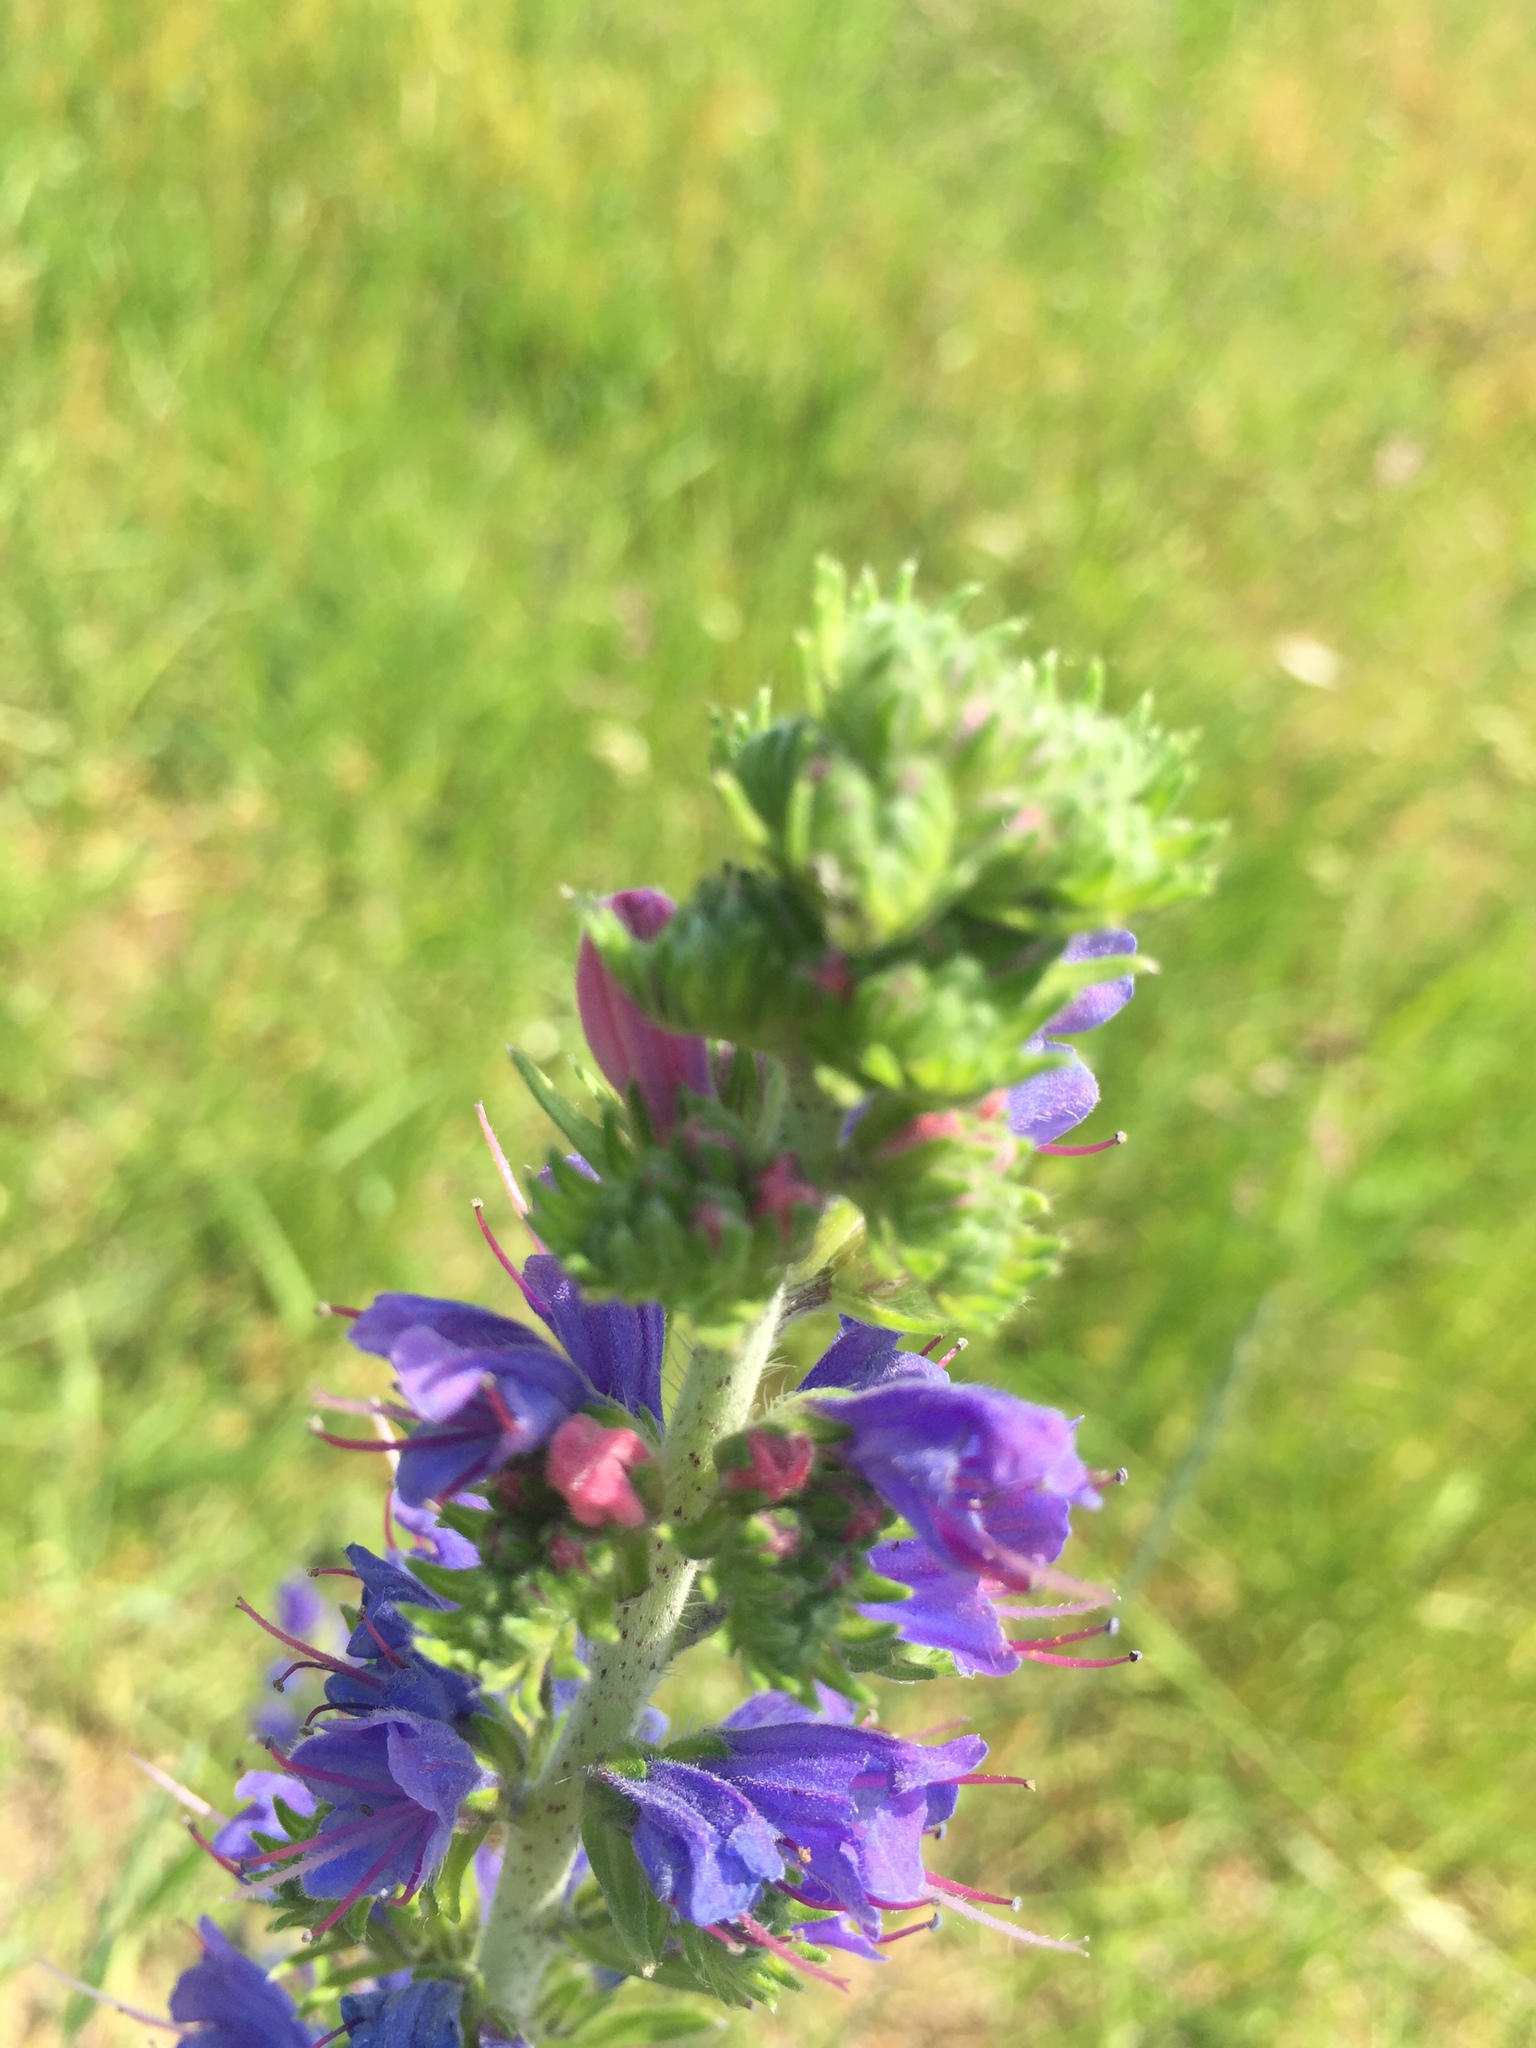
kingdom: Plantae
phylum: Tracheophyta
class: Magnoliopsida
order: Boraginales
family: Boraginaceae
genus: Echium
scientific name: Echium vulgare
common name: Common viper's bugloss
